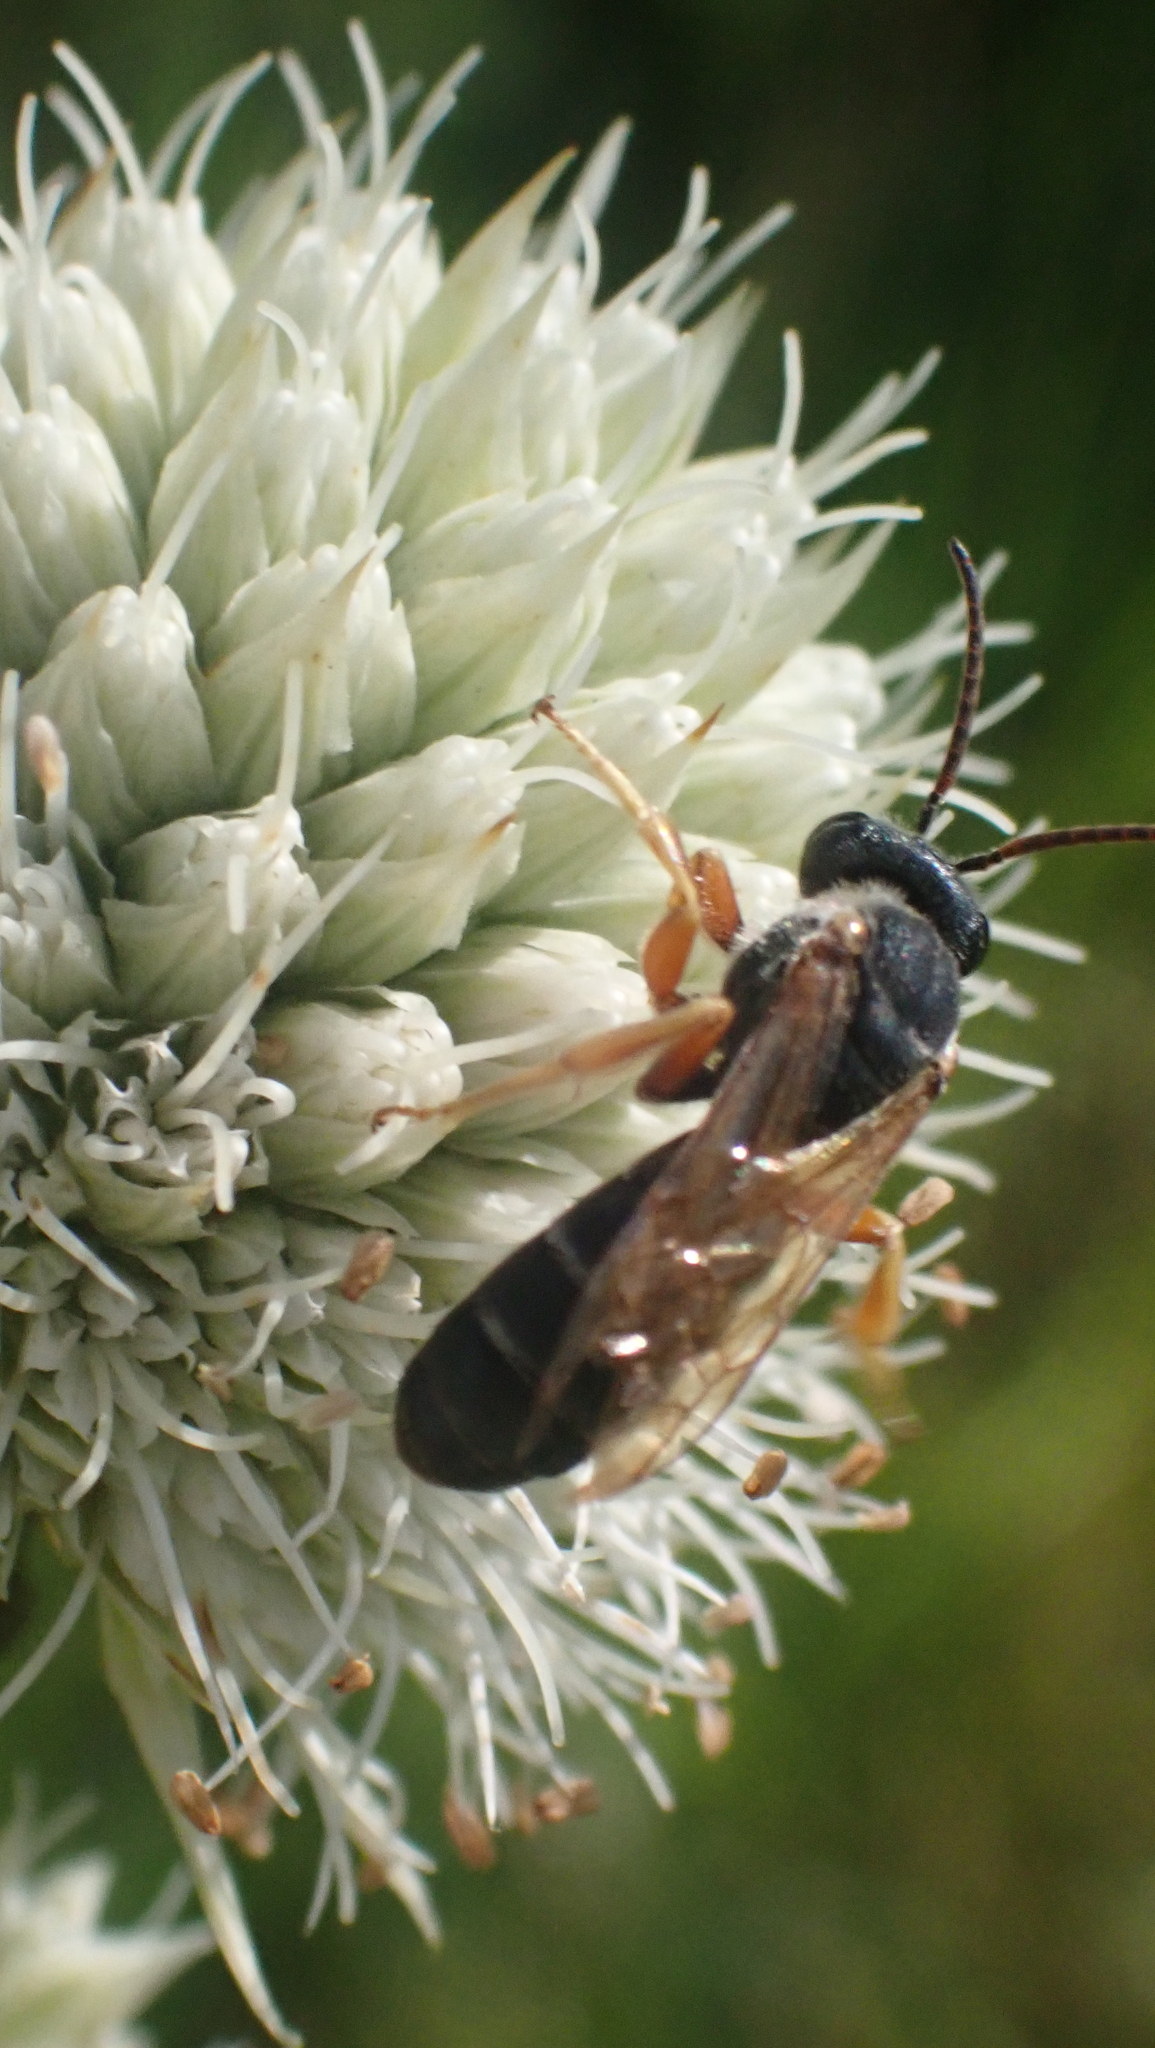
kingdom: Animalia
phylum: Arthropoda
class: Insecta
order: Hymenoptera
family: Halictidae
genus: Halictus
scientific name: Halictus parallelus
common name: Parallel-striped sweat bee
